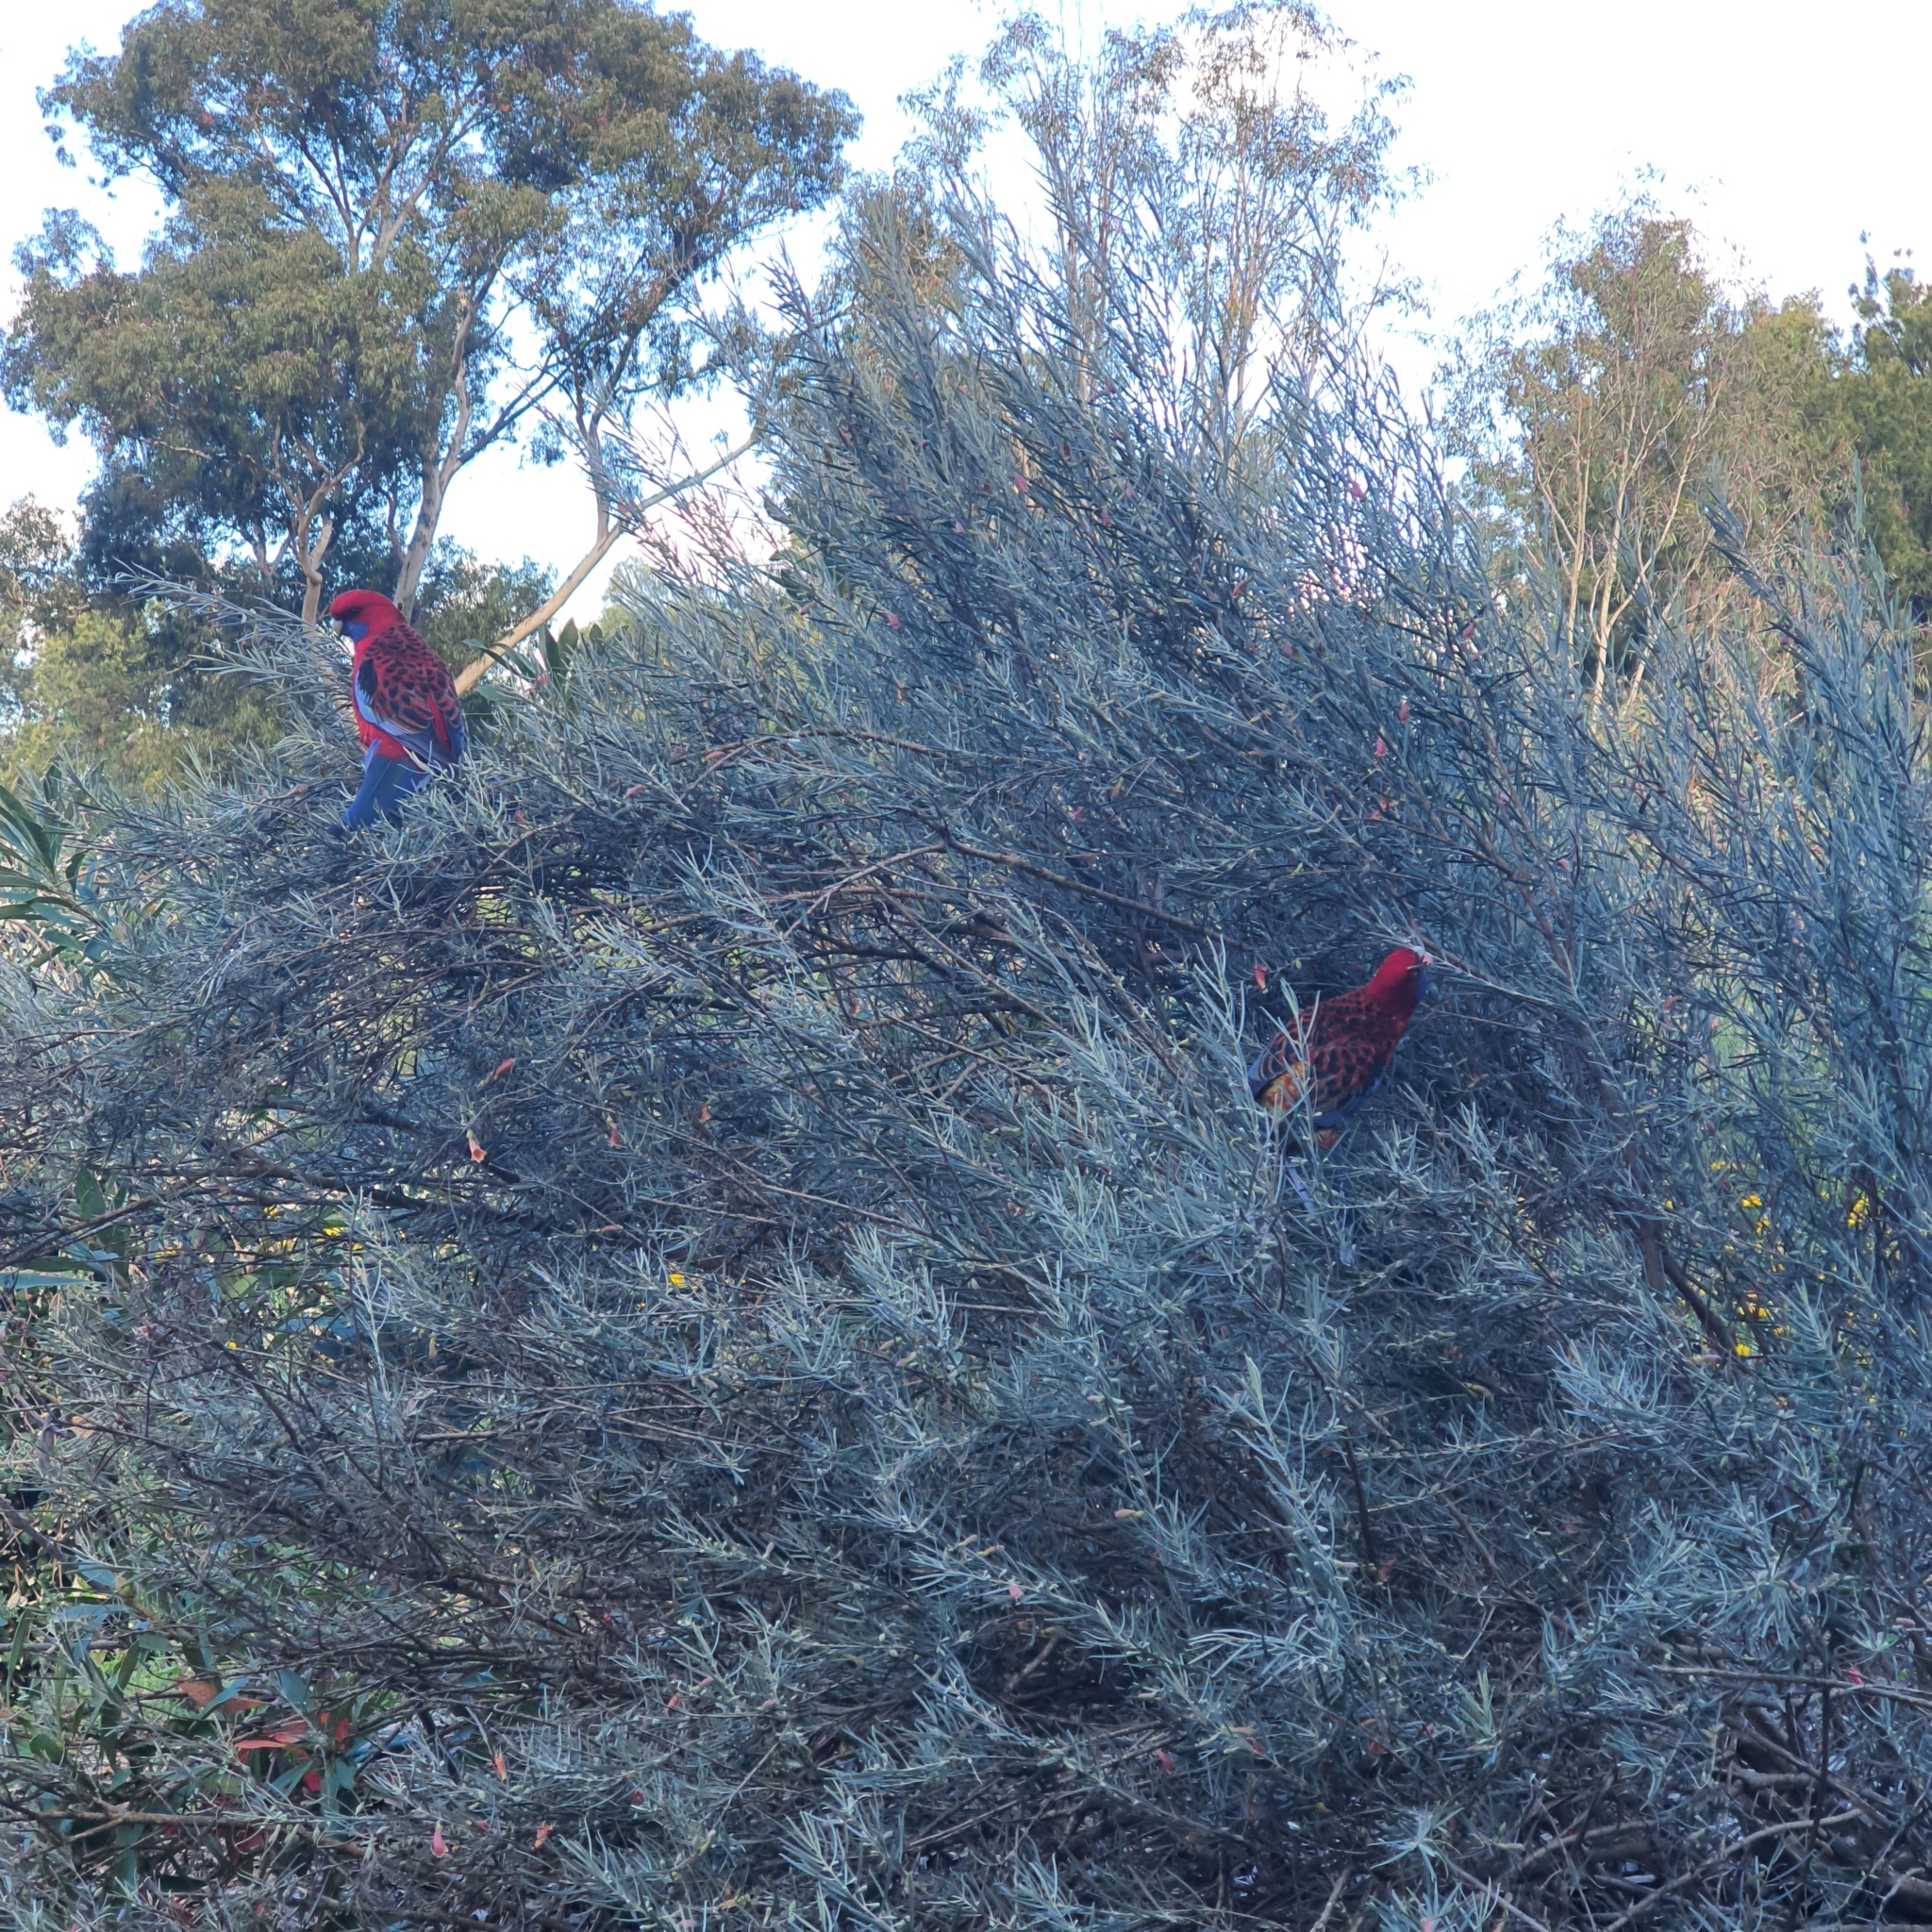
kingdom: Animalia
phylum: Chordata
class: Aves
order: Psittaciformes
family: Psittacidae
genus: Platycercus
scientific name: Platycercus elegans
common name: Crimson rosella
